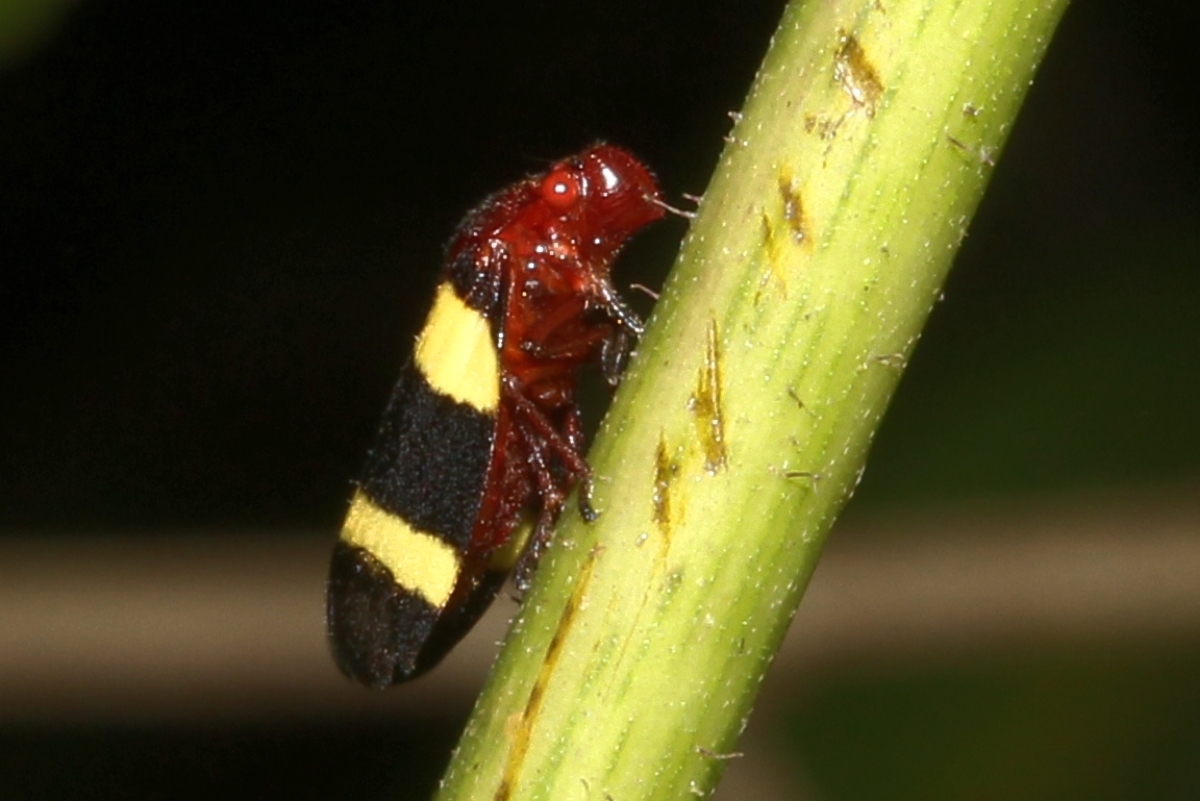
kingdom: Animalia
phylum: Arthropoda
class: Insecta
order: Hemiptera
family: Cercopidae
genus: Sphenorhina
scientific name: Sphenorhina rubra
